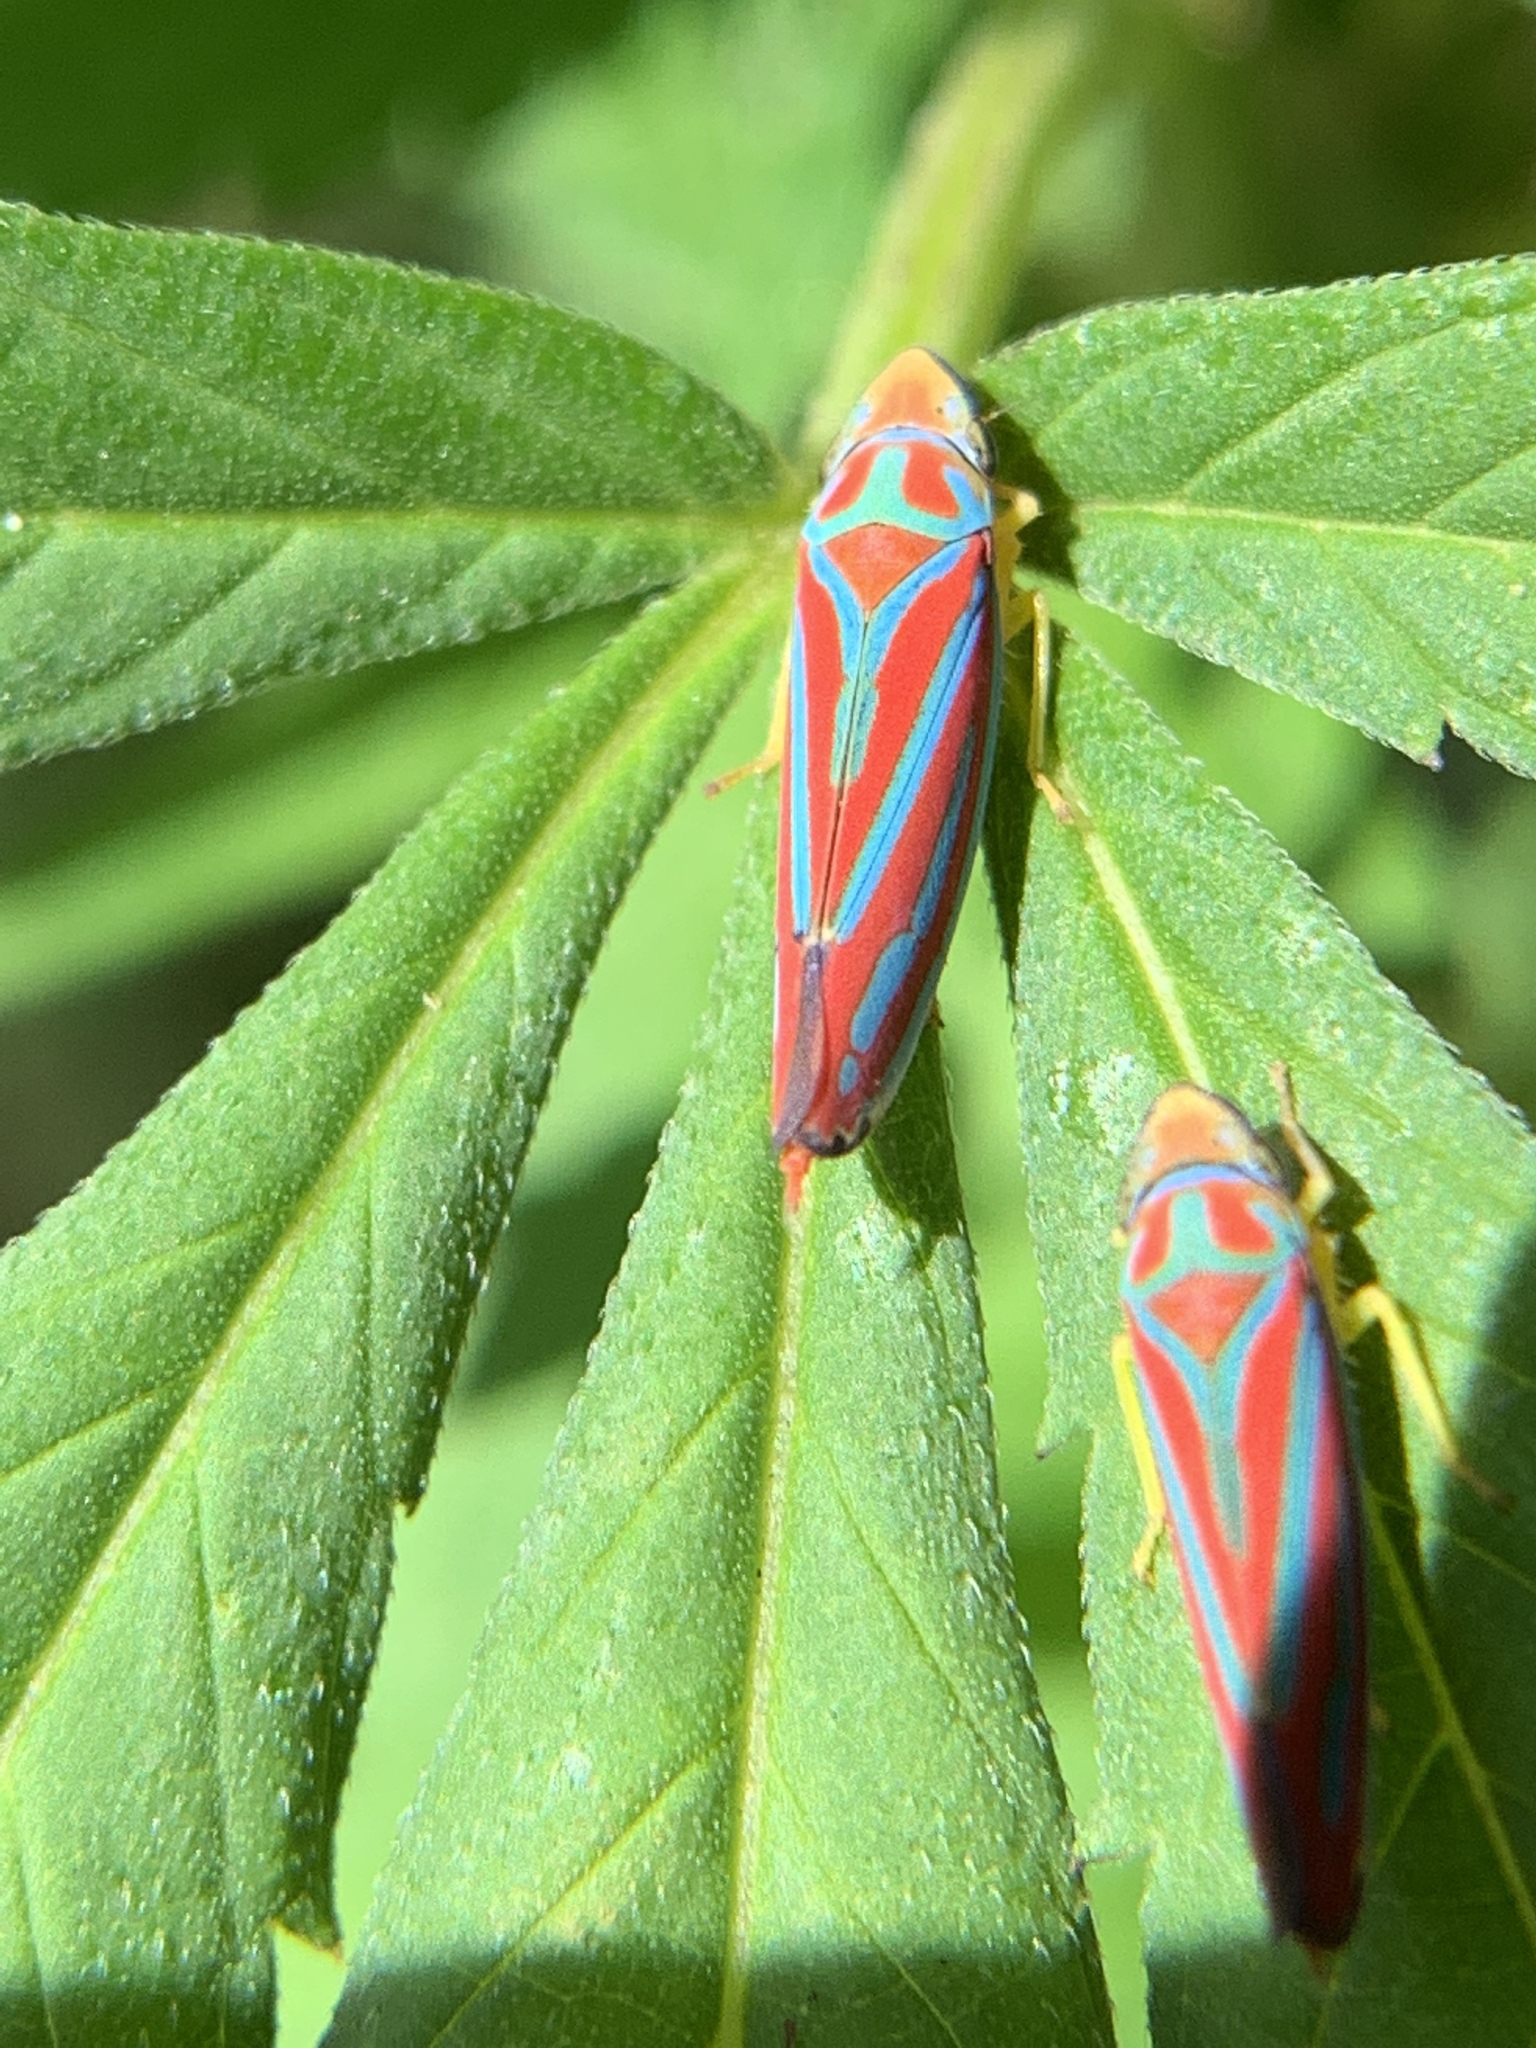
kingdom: Animalia
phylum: Arthropoda
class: Insecta
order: Hemiptera
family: Cicadellidae
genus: Graphocephala
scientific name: Graphocephala coccinea
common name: Candy-striped leafhopper
